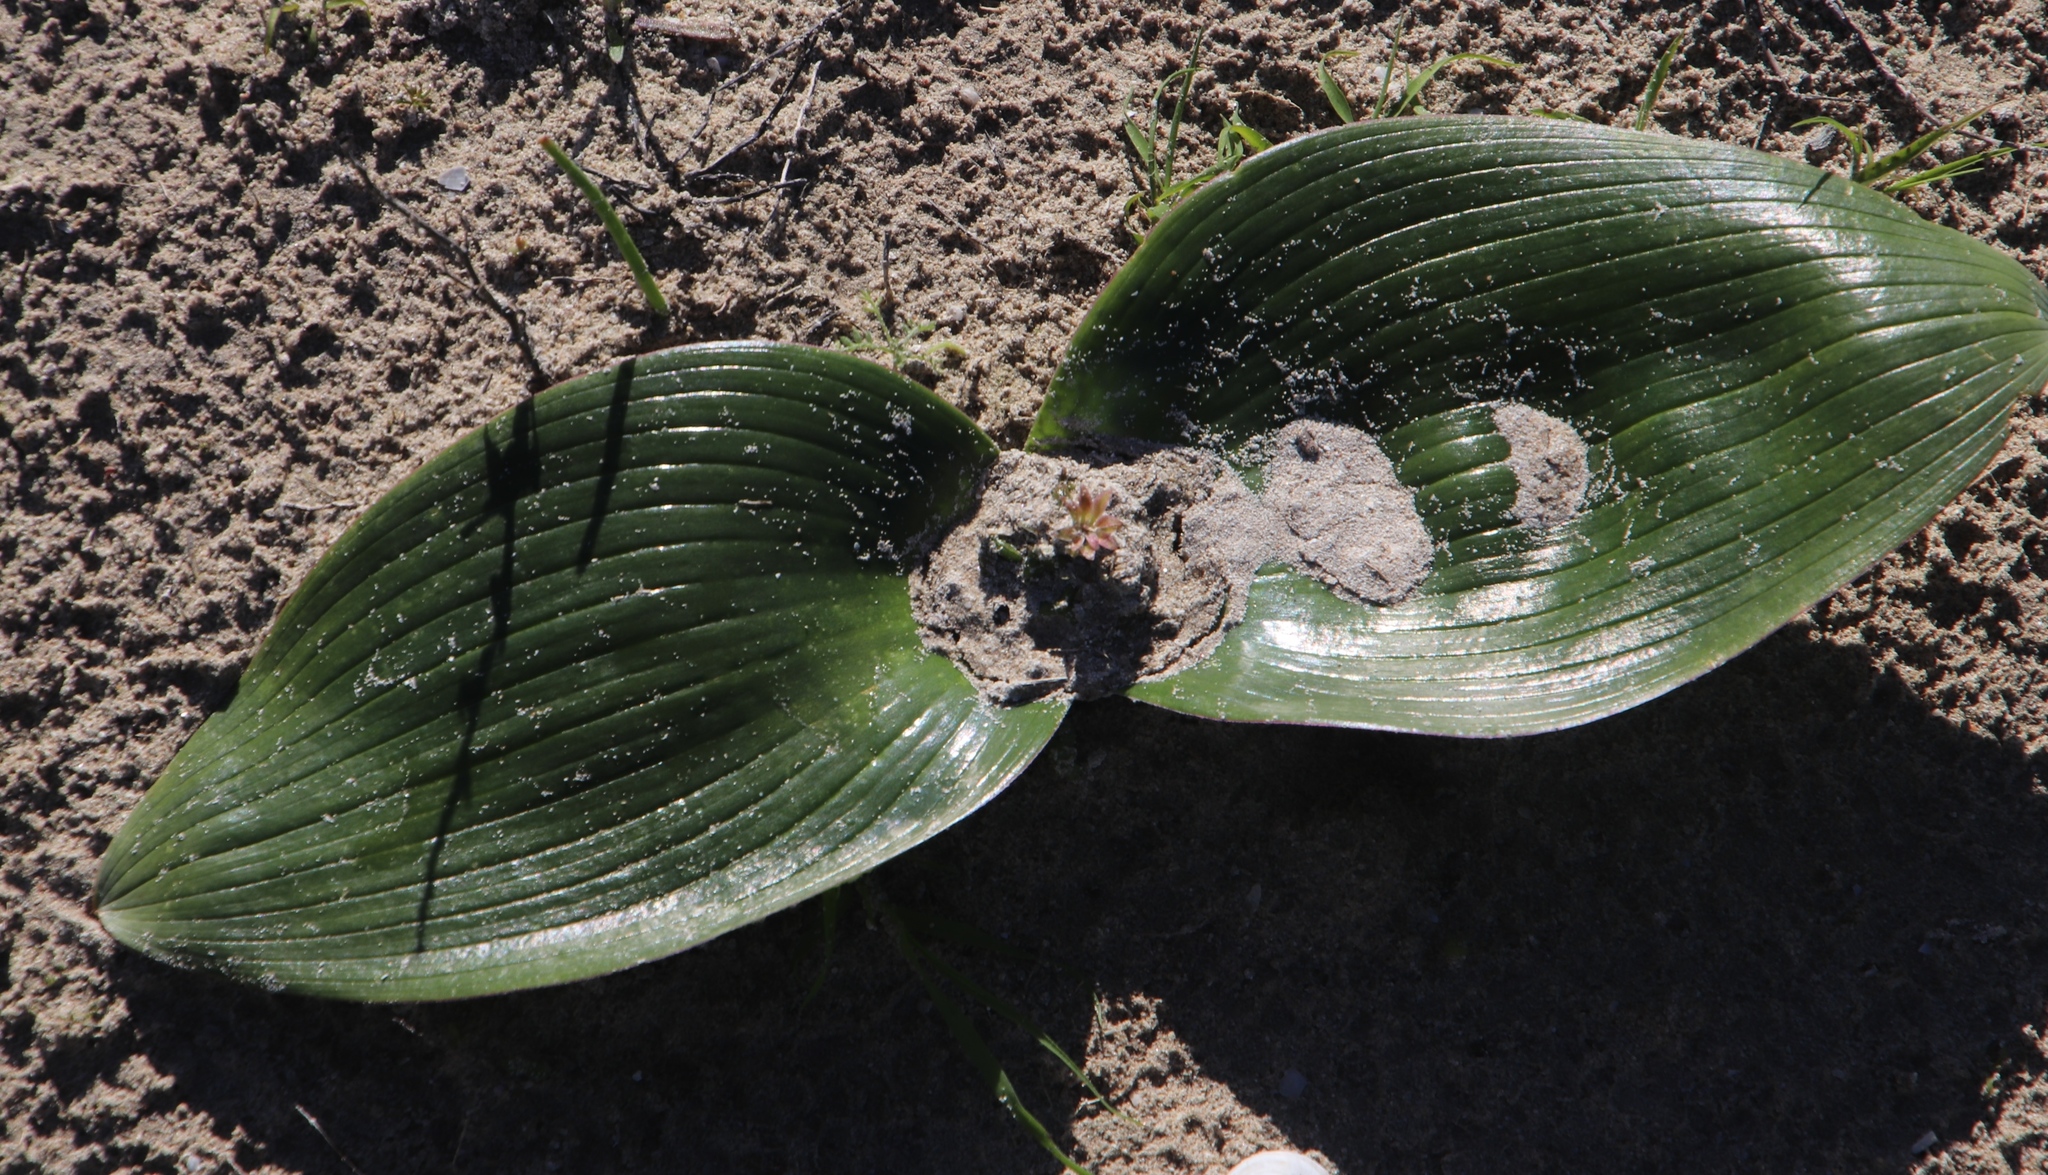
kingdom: Plantae
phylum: Tracheophyta
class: Liliopsida
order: Asparagales
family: Asparagaceae
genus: Daubenya
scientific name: Daubenya zeyheri
